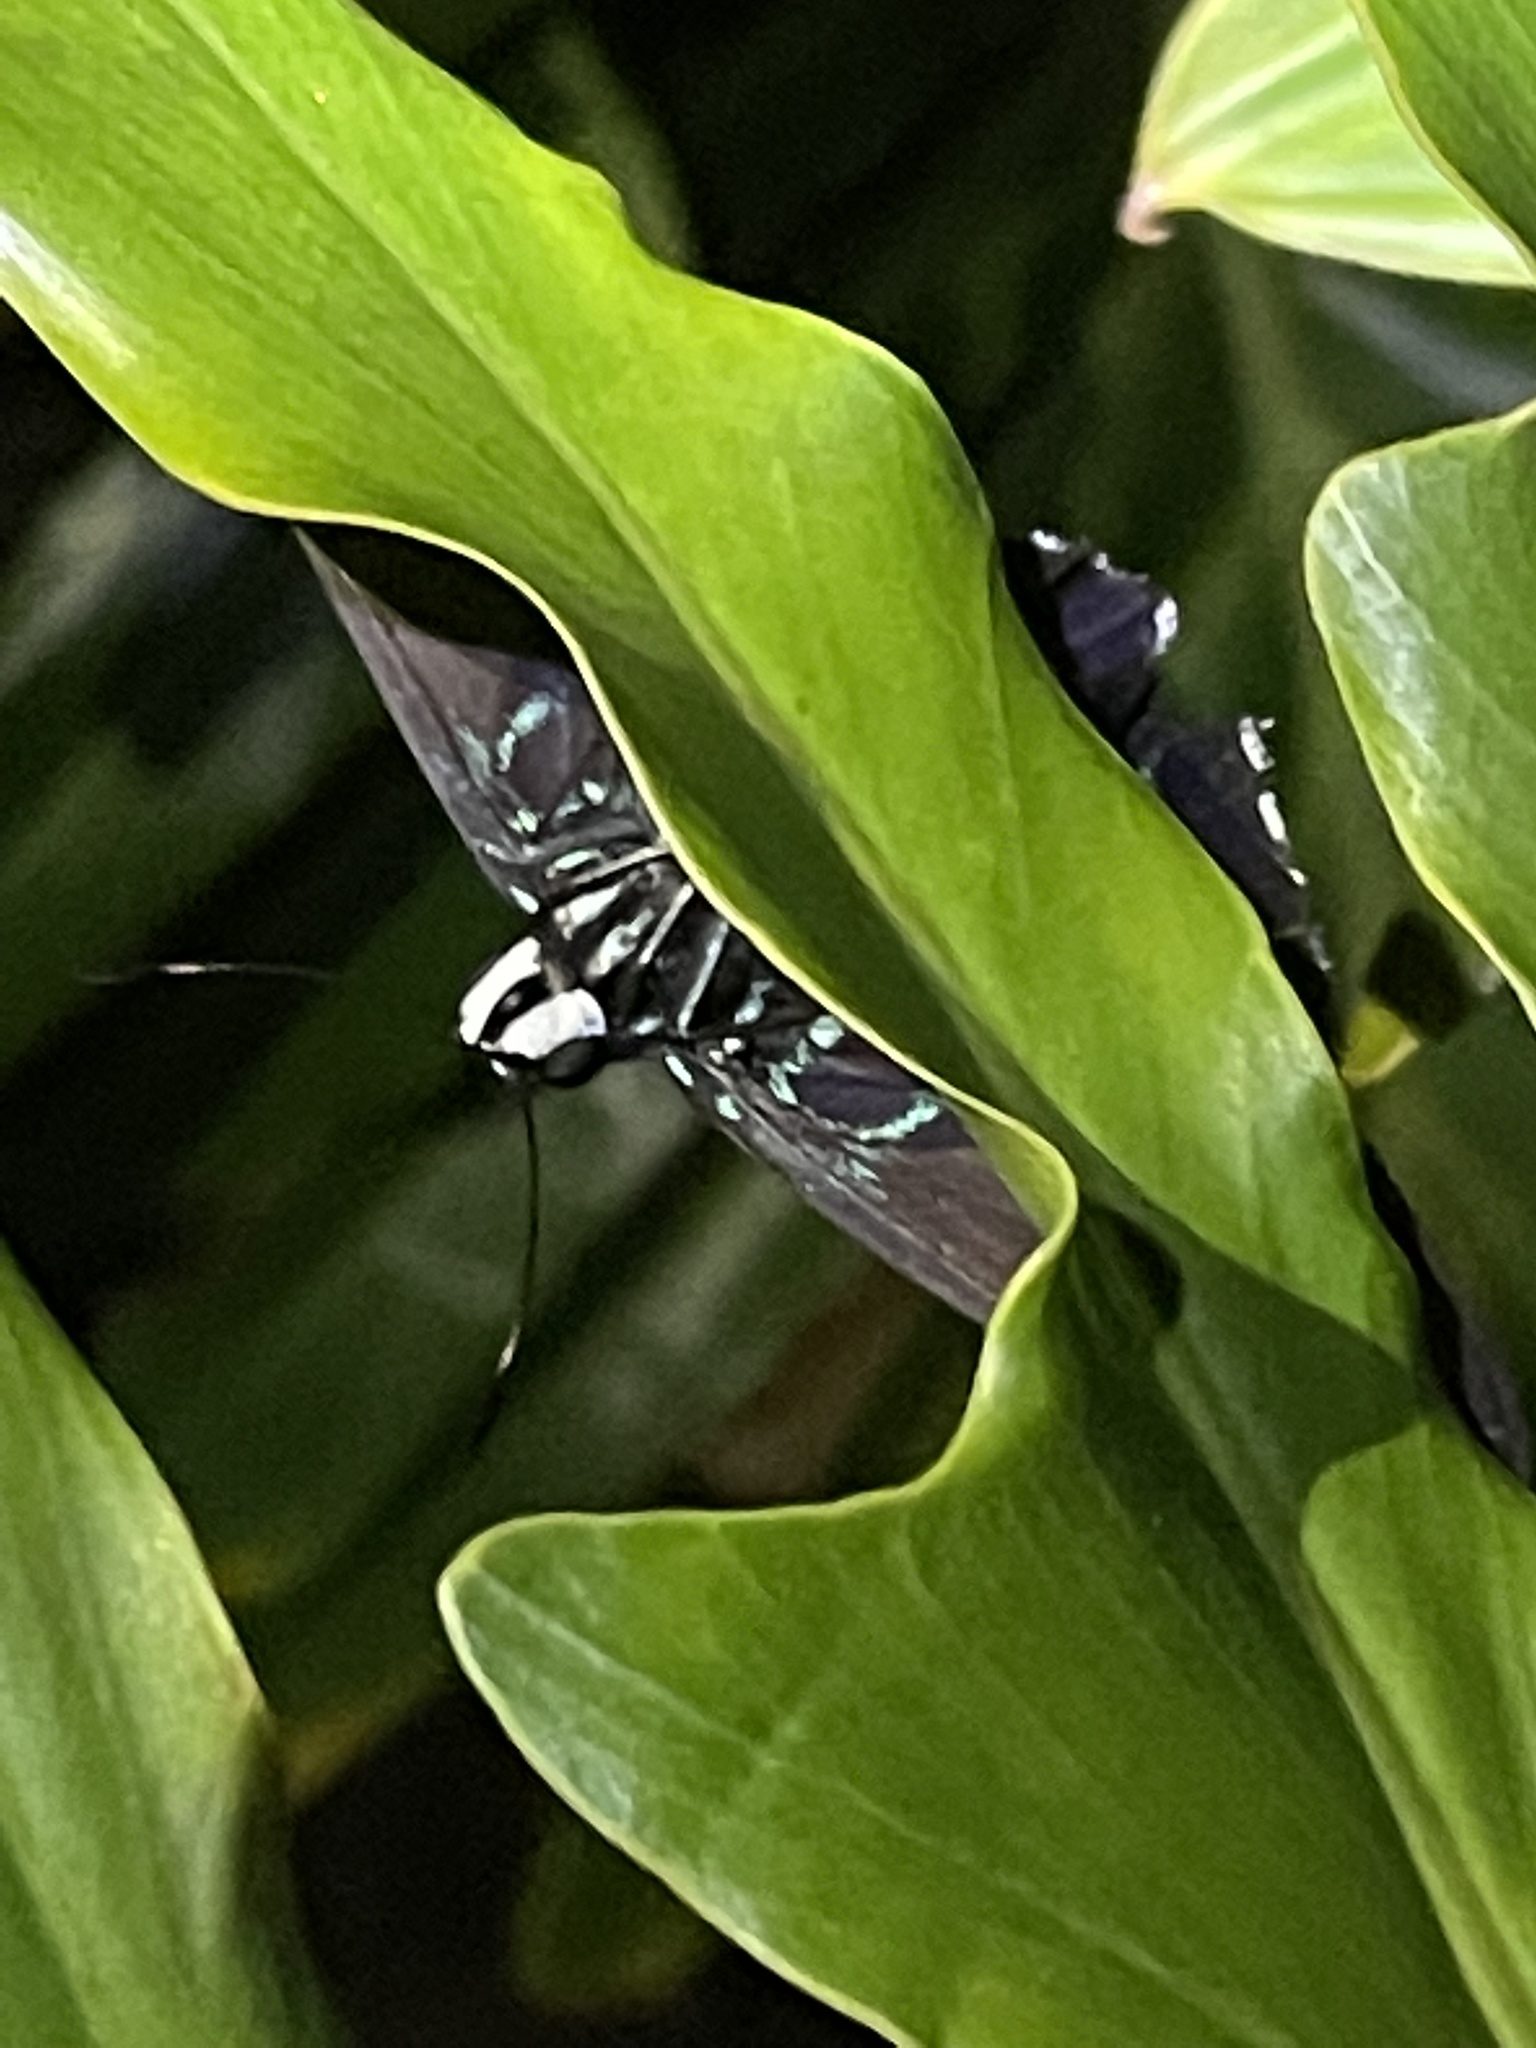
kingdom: Animalia
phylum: Arthropoda
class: Insecta
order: Lepidoptera
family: Hesperiidae
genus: Phocides
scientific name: Phocides pigmalion
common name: Mangrove skipper
